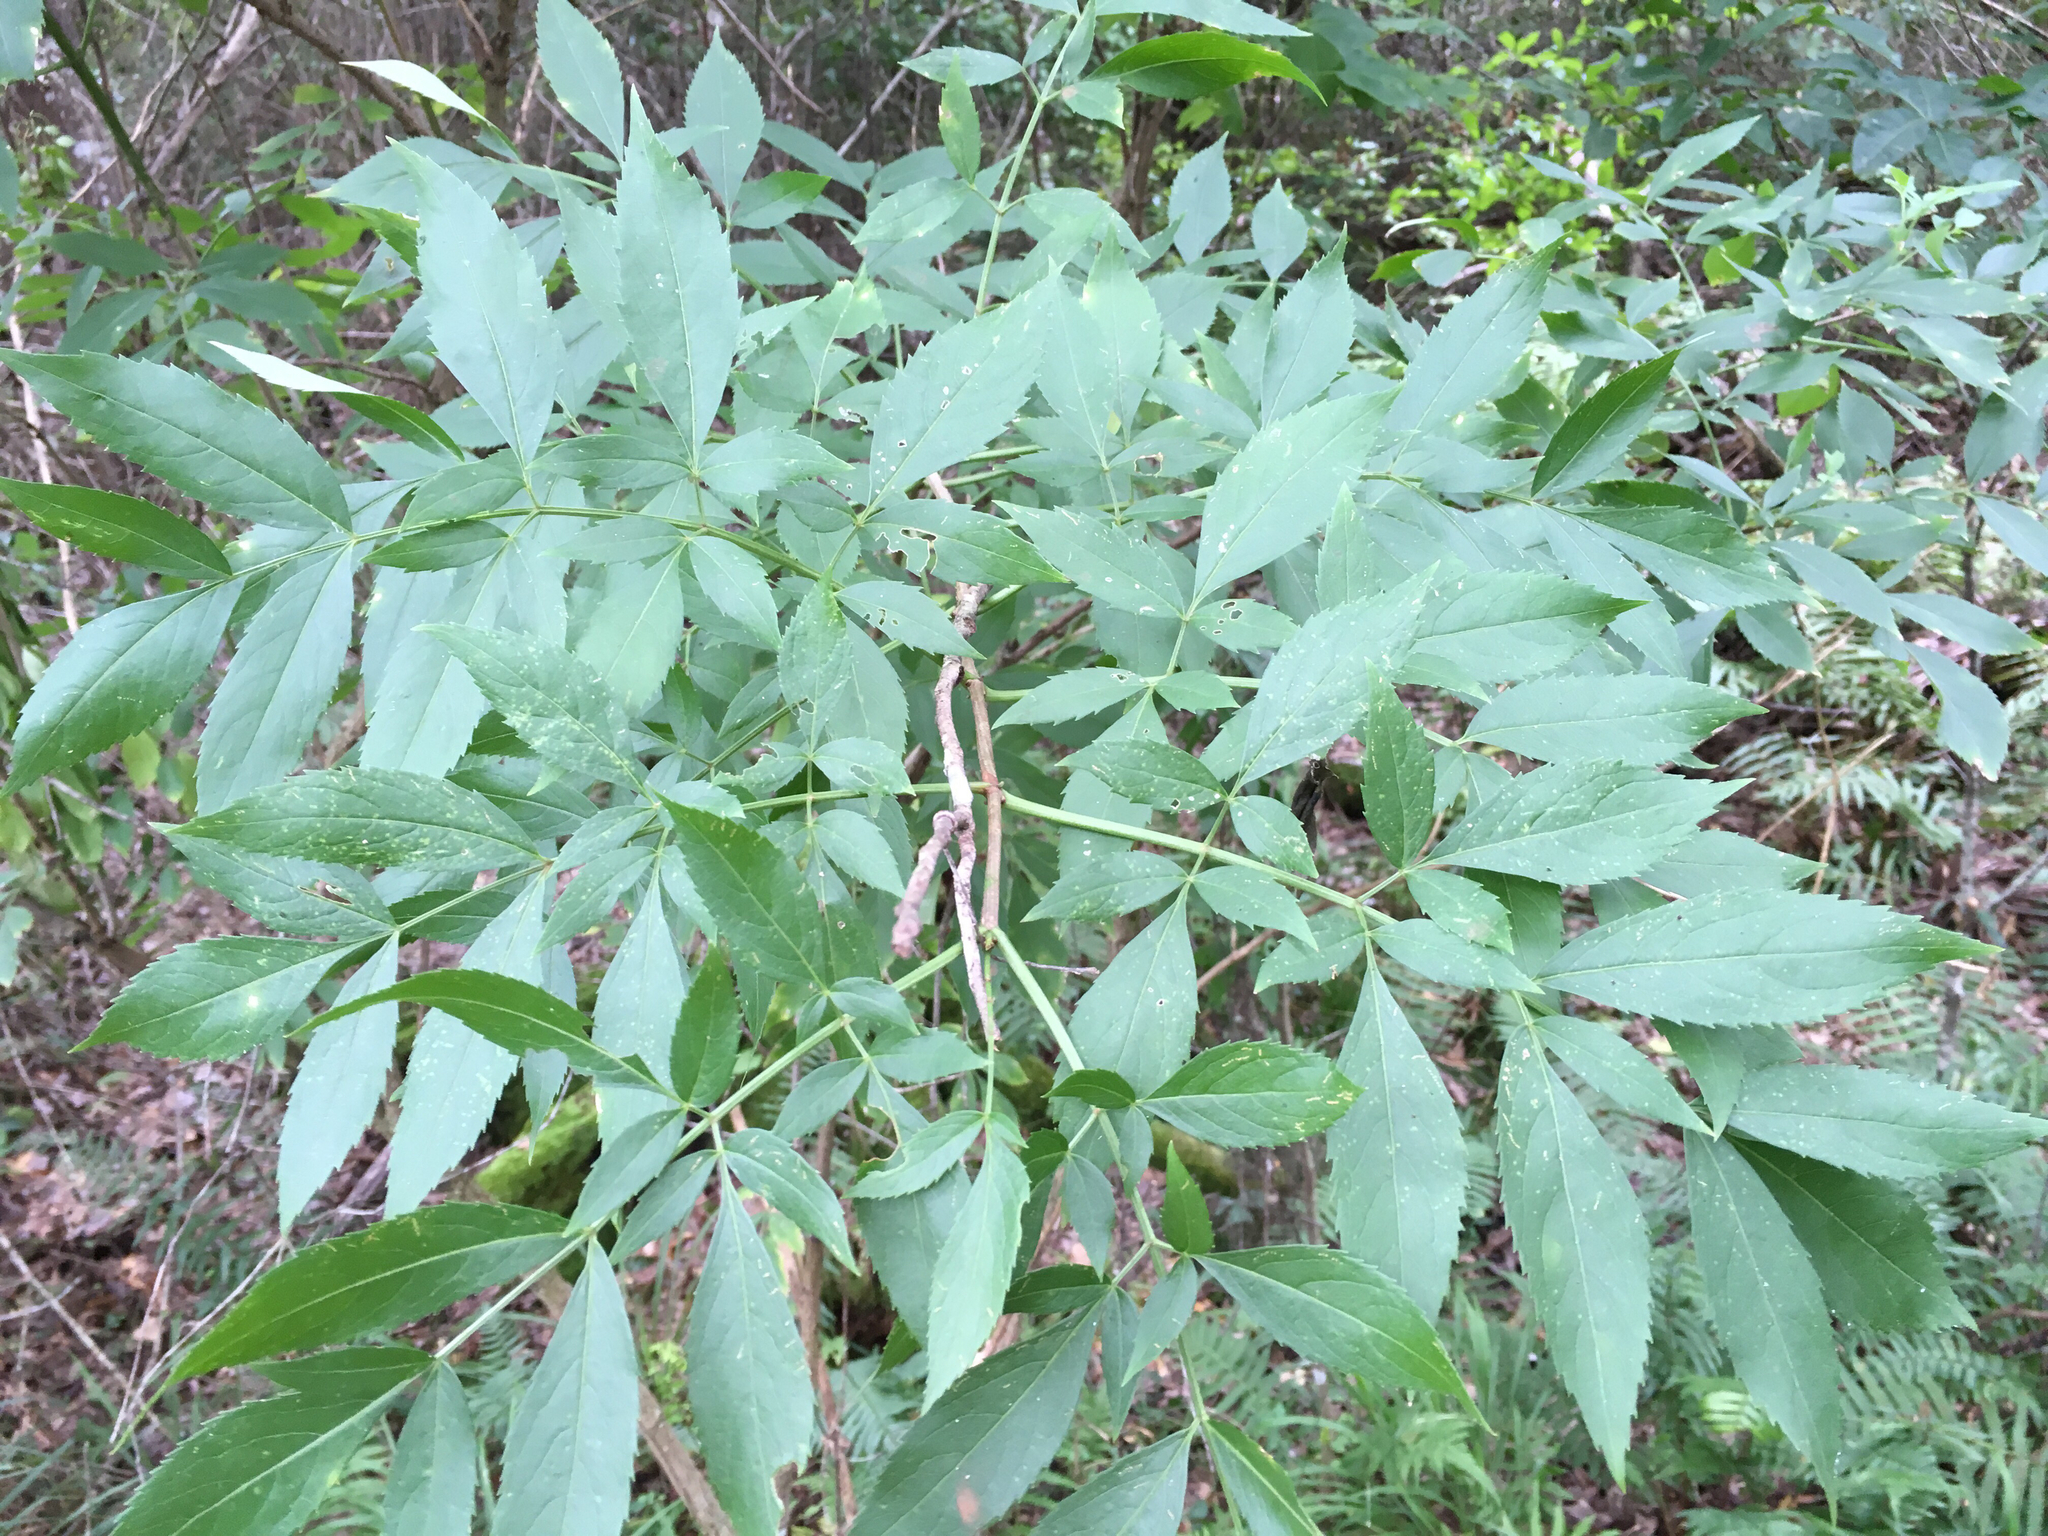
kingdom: Plantae
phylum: Tracheophyta
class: Magnoliopsida
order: Dipsacales
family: Viburnaceae
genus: Sambucus
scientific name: Sambucus canadensis
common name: American elder
